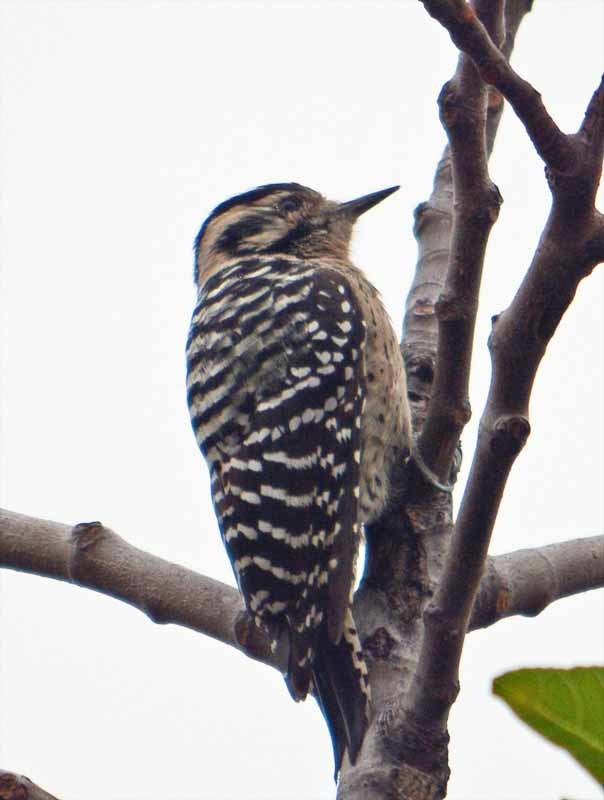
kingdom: Animalia
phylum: Chordata
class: Aves
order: Piciformes
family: Picidae
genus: Dryobates
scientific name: Dryobates scalaris
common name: Ladder-backed woodpecker
